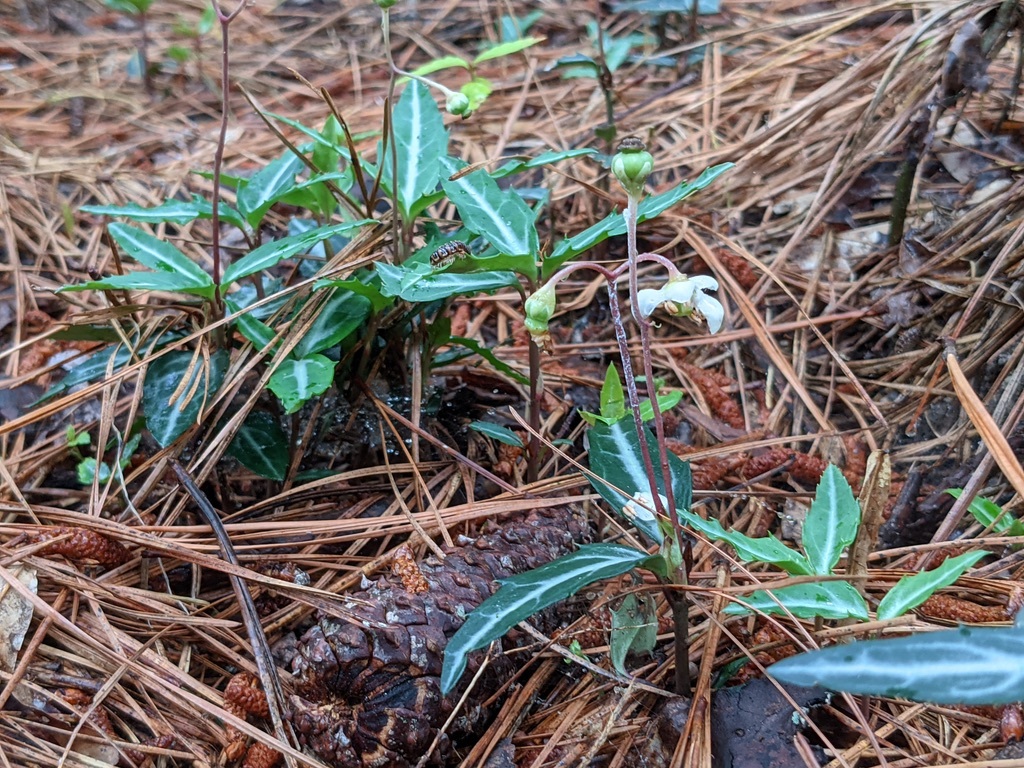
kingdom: Plantae
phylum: Tracheophyta
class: Magnoliopsida
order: Ericales
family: Ericaceae
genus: Chimaphila
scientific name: Chimaphila maculata
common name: Spotted pipsissewa
